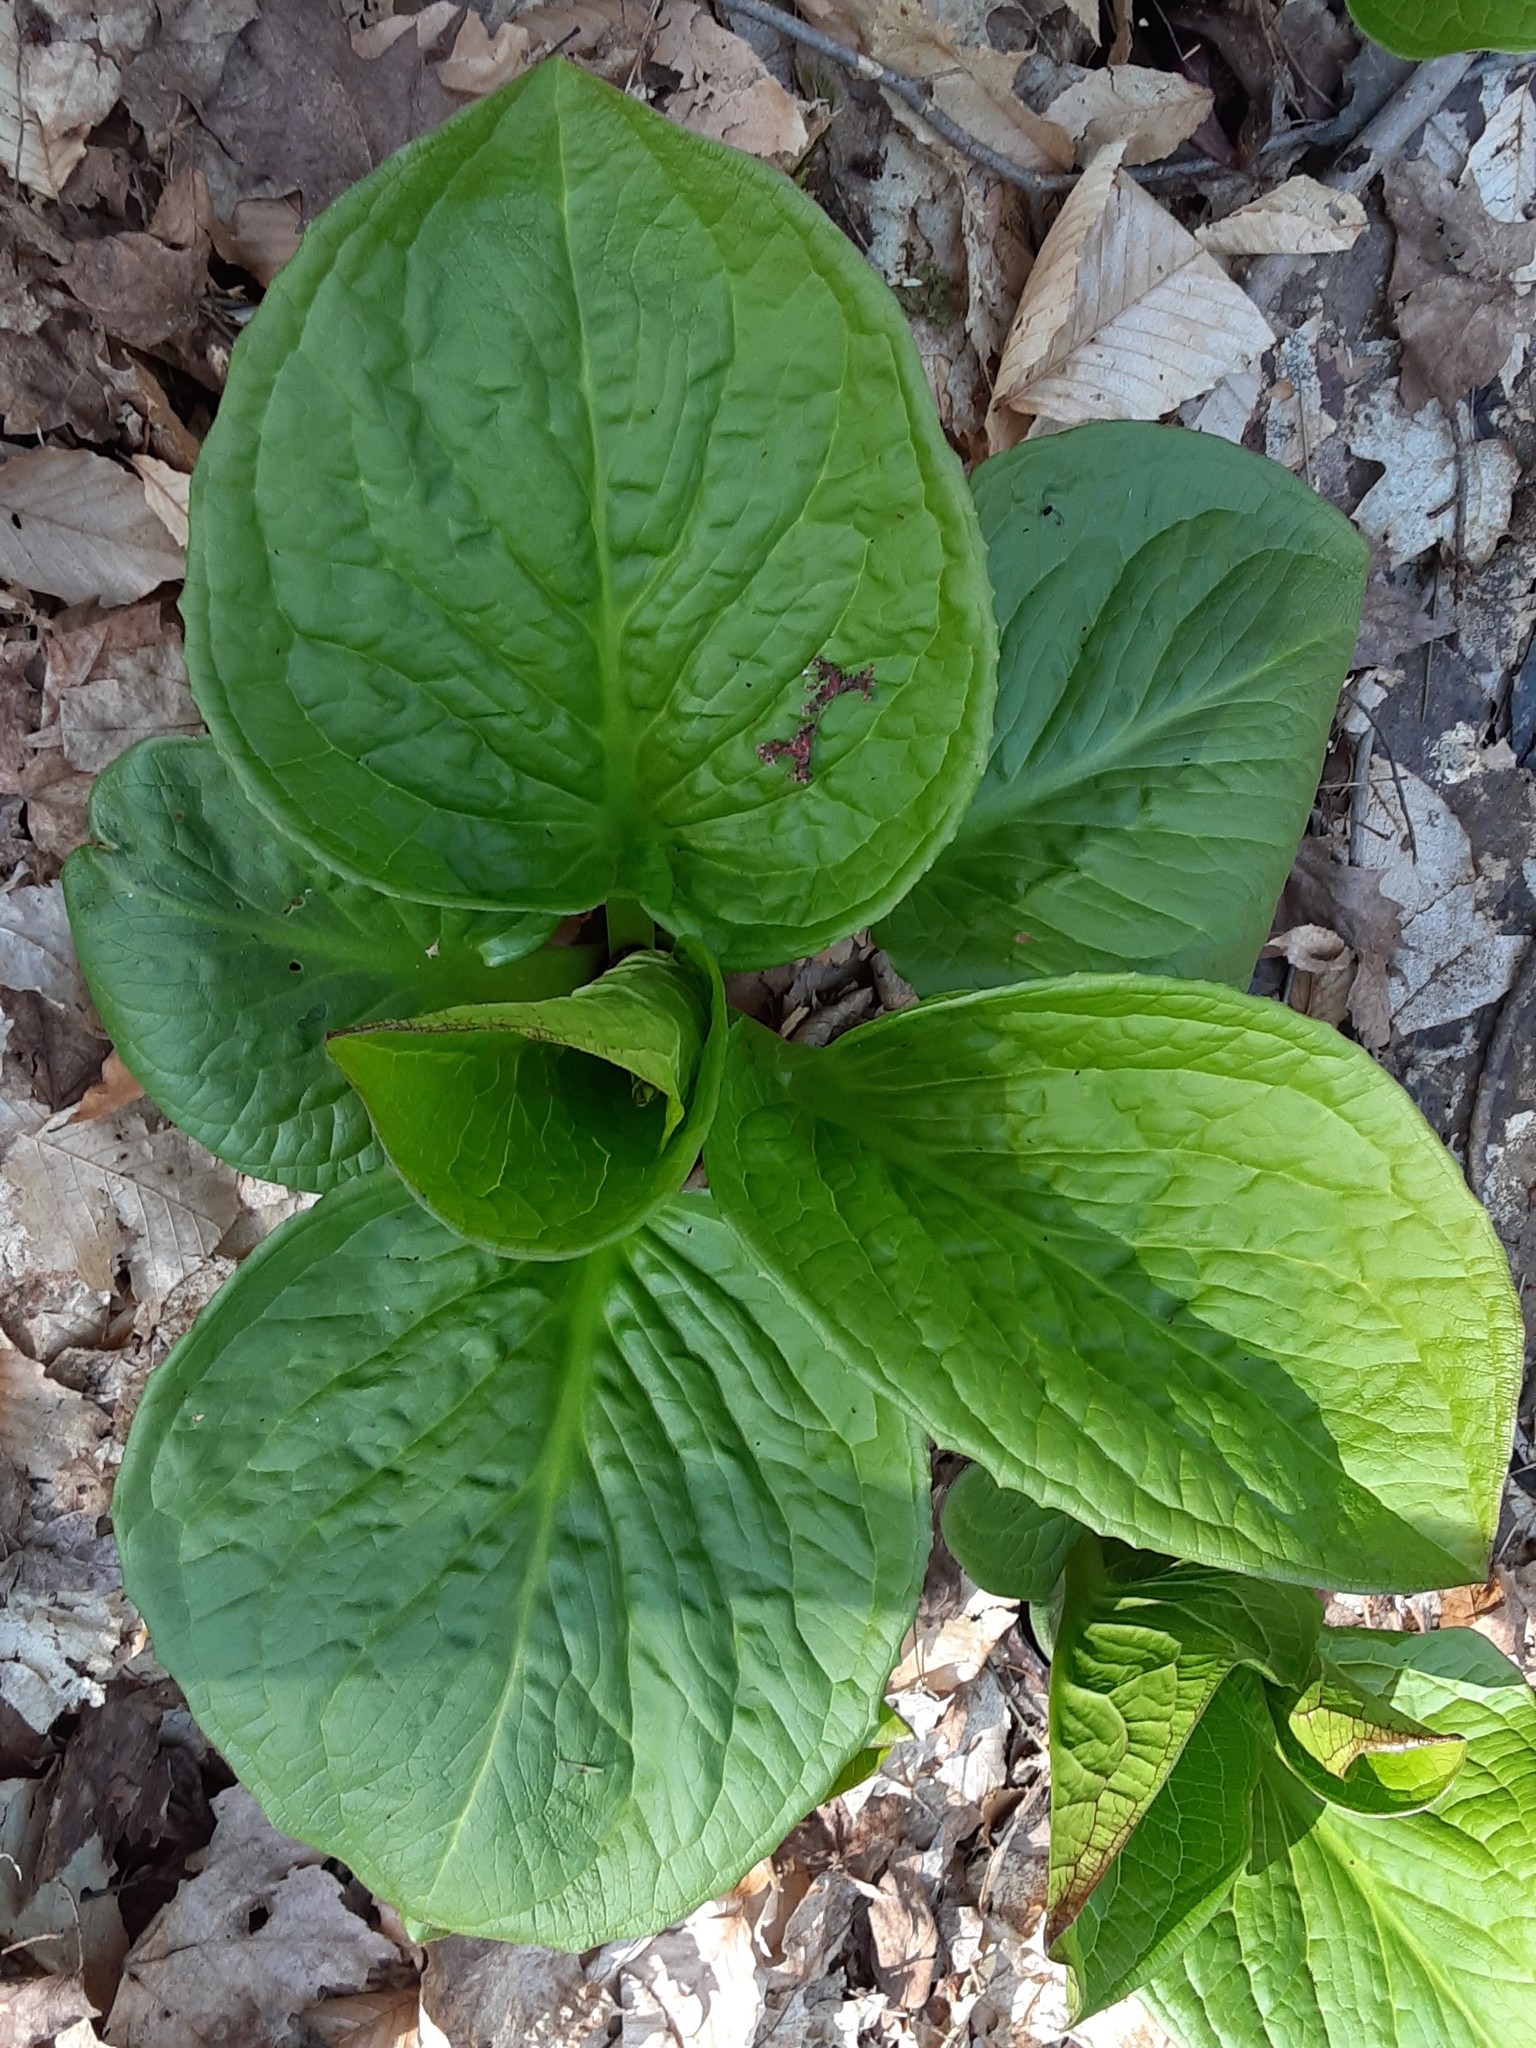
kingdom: Plantae
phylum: Tracheophyta
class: Liliopsida
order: Alismatales
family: Araceae
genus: Symplocarpus
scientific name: Symplocarpus foetidus
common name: Eastern skunk cabbage
